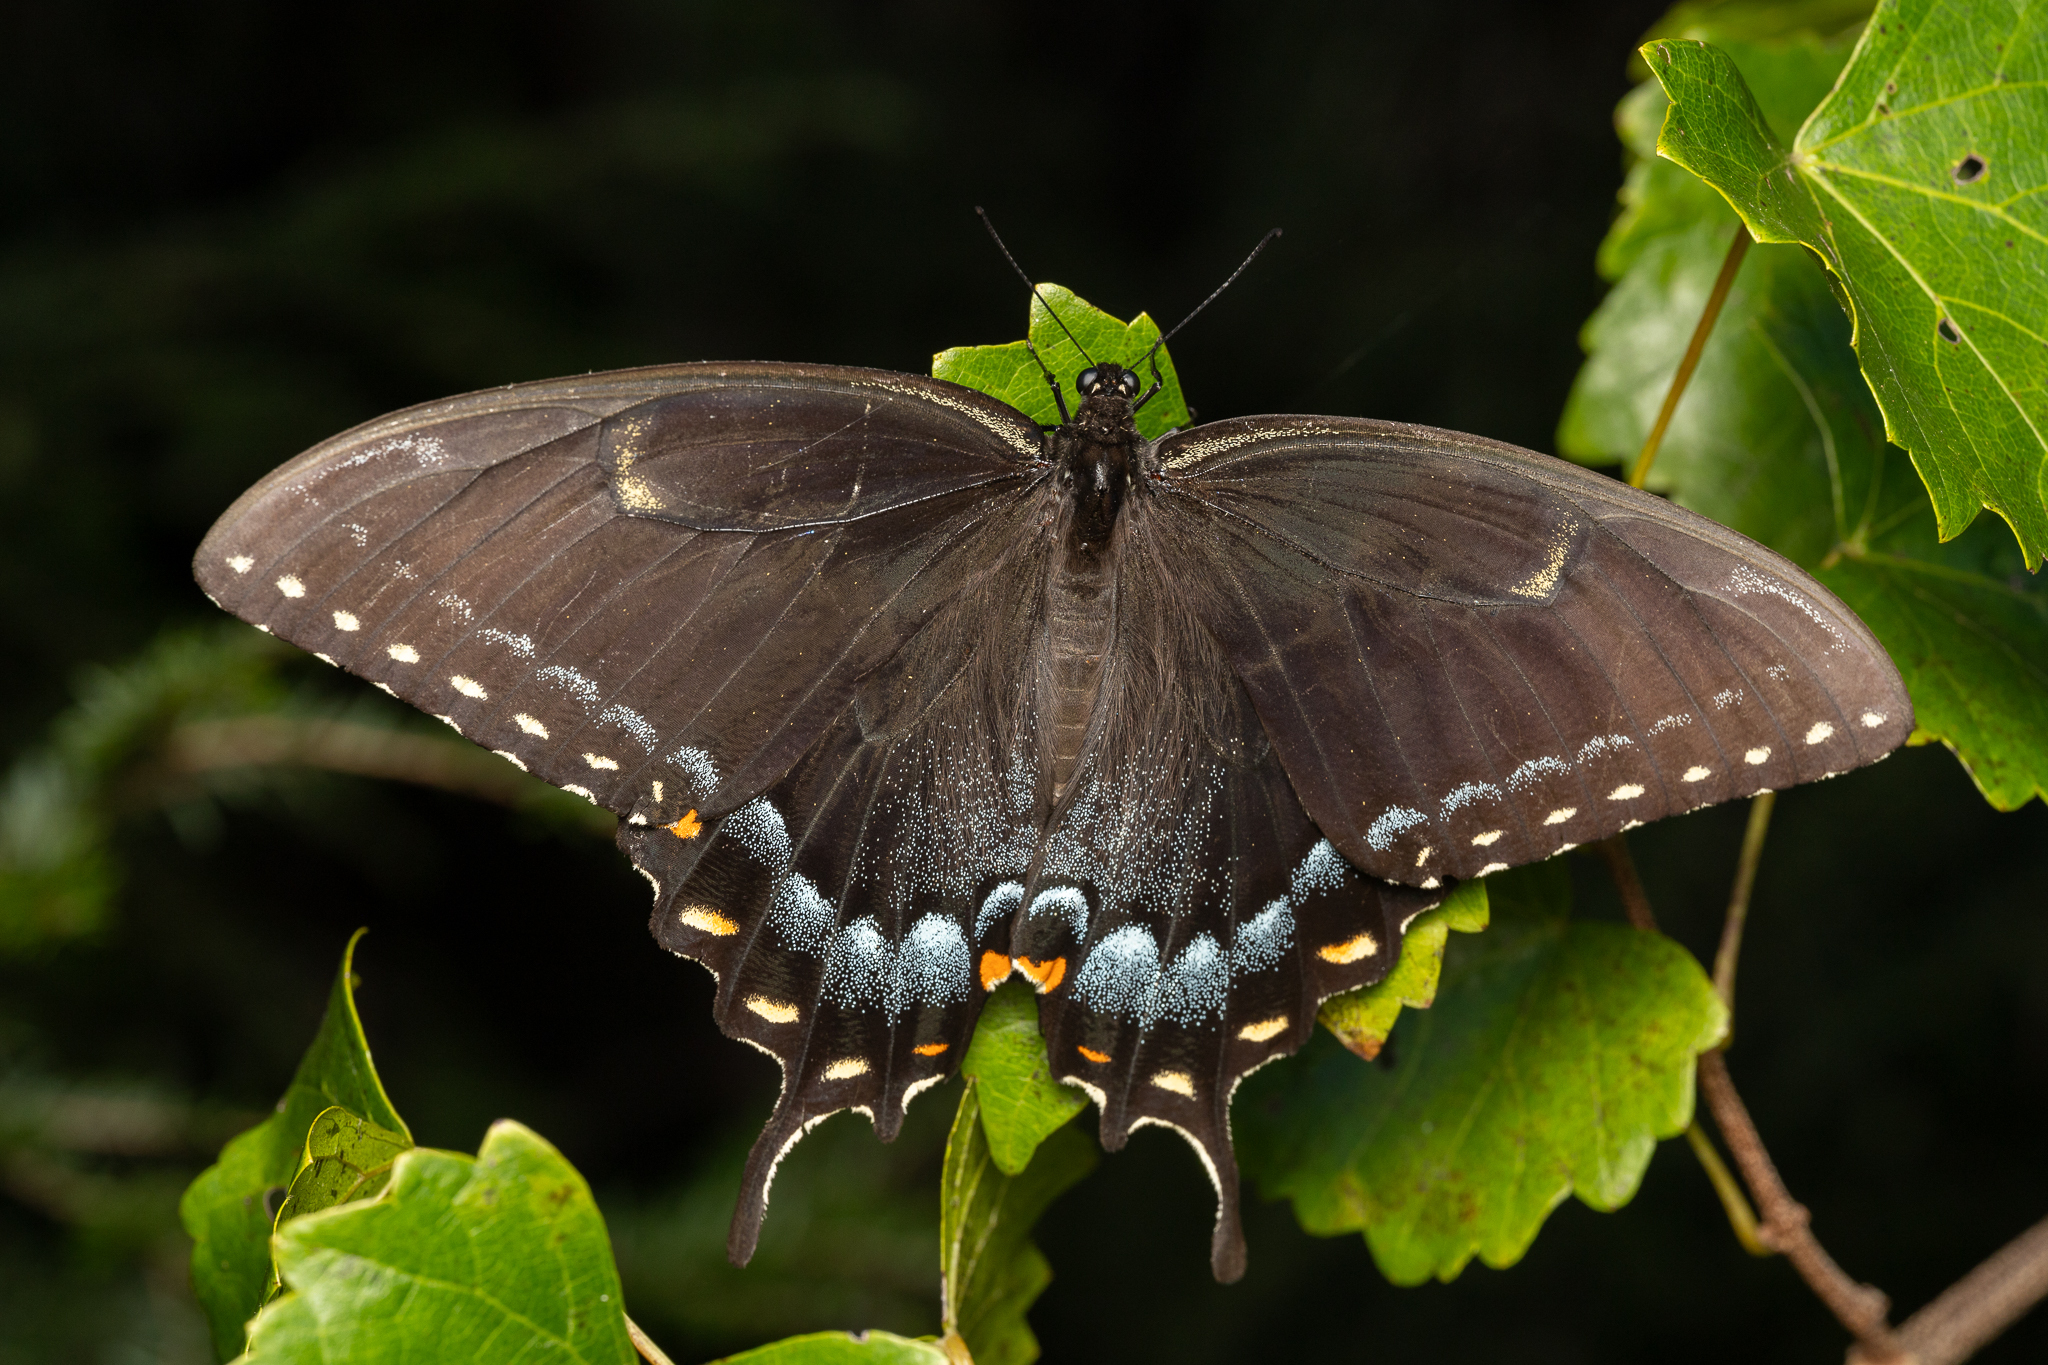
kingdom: Animalia
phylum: Arthropoda
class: Insecta
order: Lepidoptera
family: Papilionidae
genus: Papilio
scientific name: Papilio glaucus
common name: Tiger swallowtail
